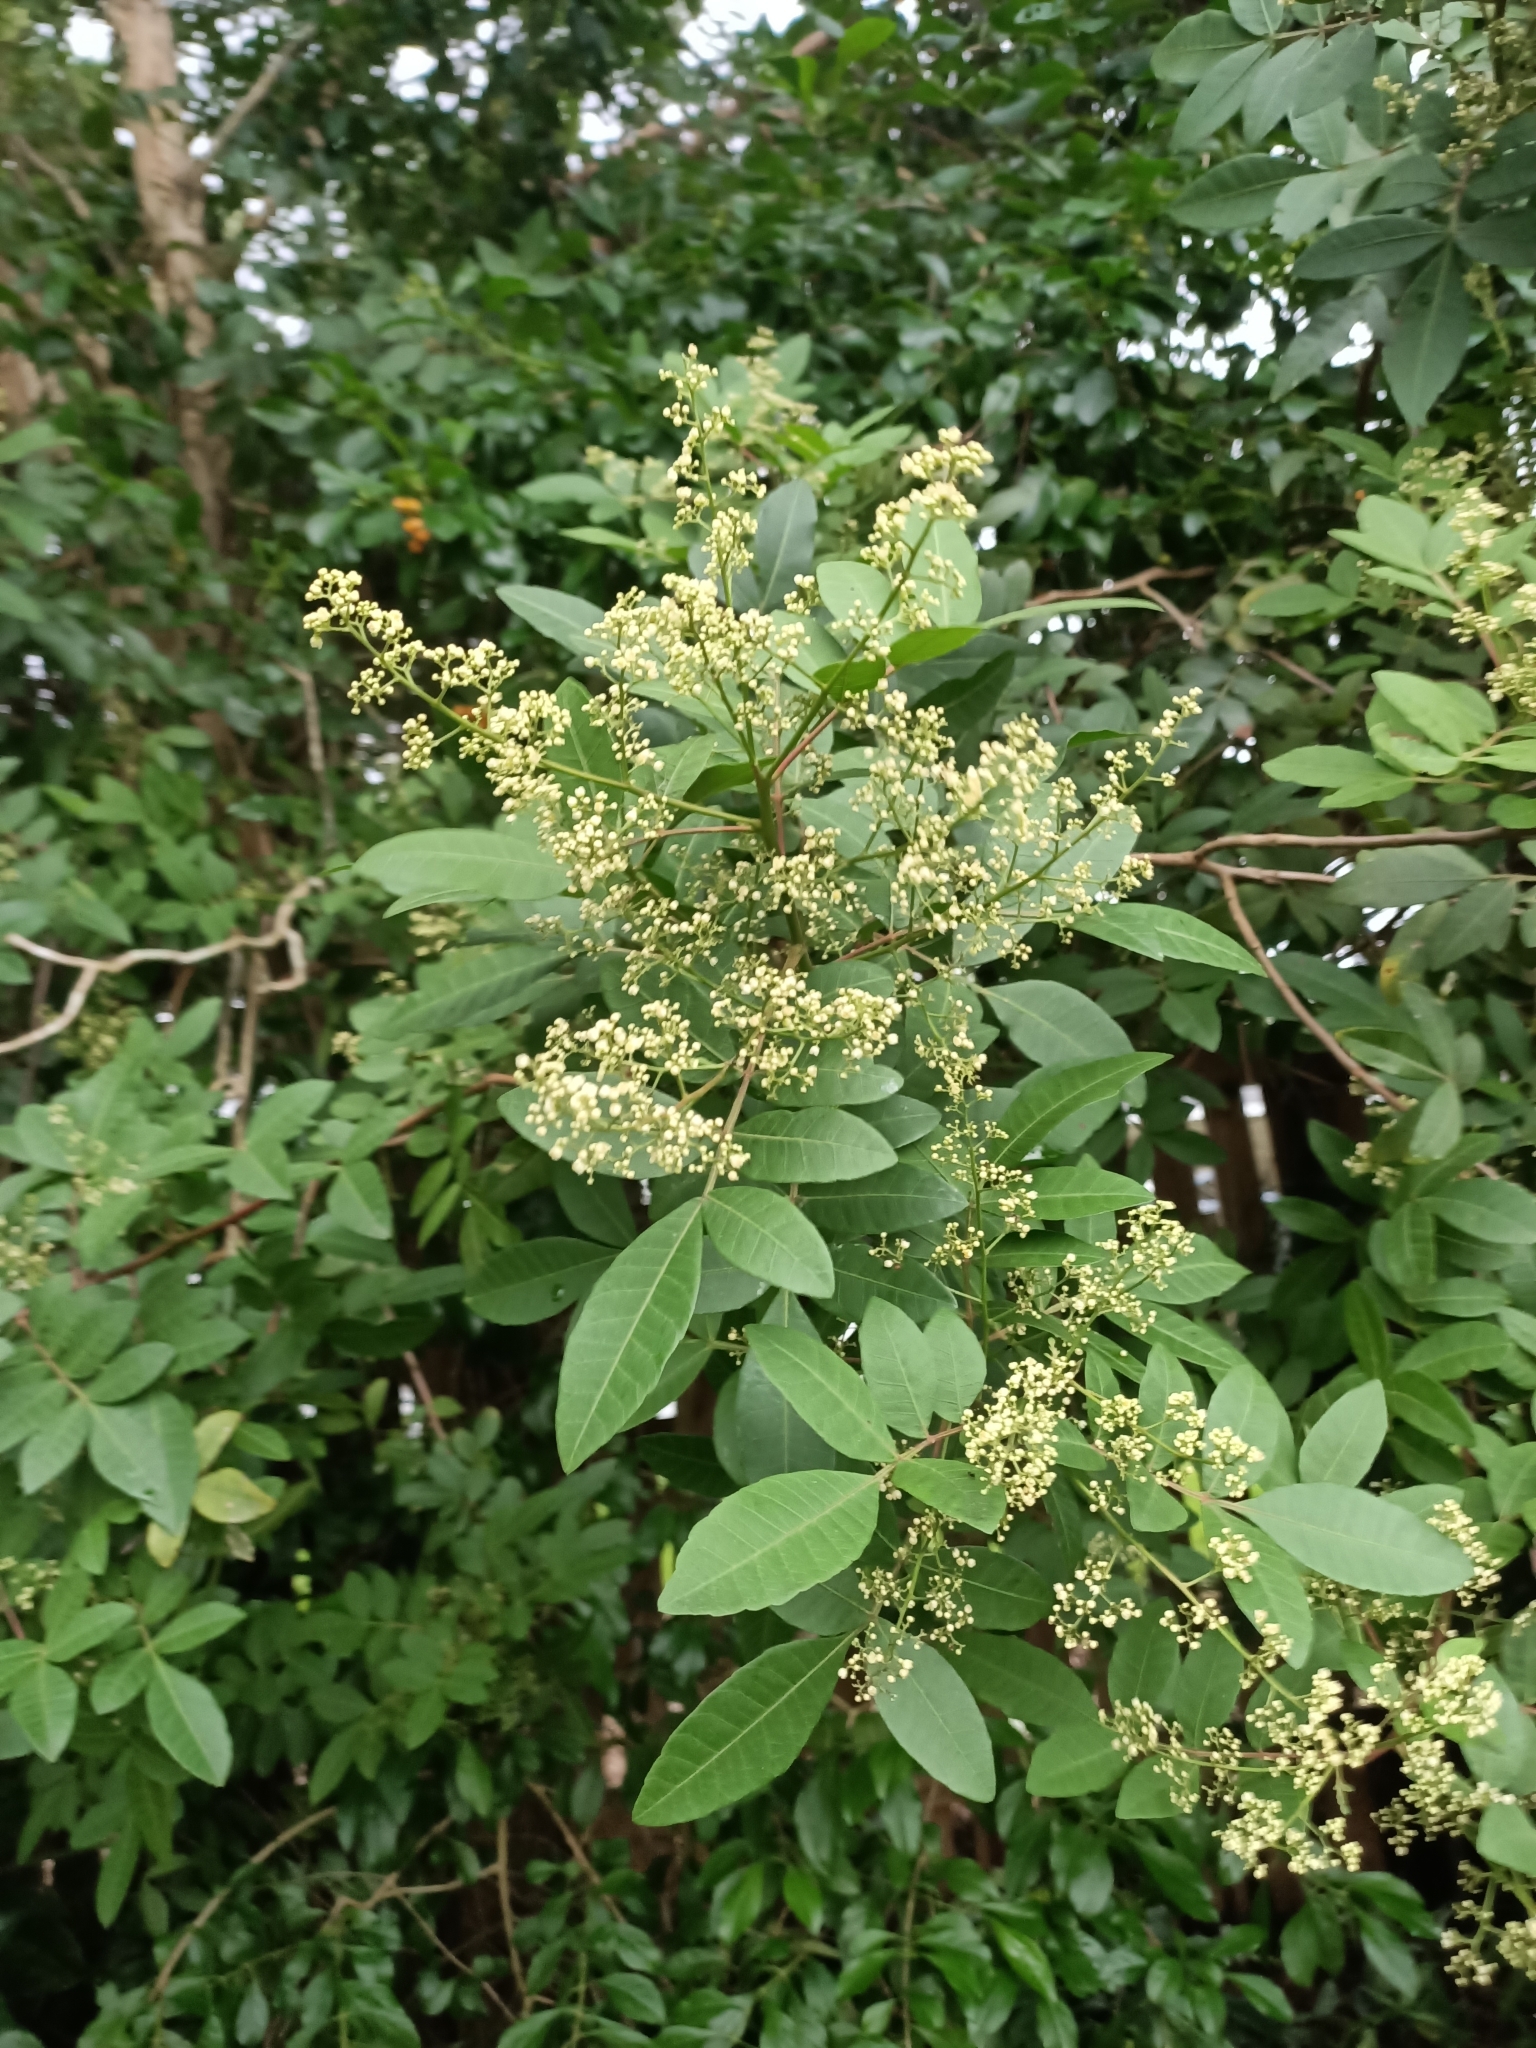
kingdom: Plantae
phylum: Tracheophyta
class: Magnoliopsida
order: Sapindales
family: Anacardiaceae
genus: Schinus
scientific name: Schinus terebinthifolia
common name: Brazilian peppertree
